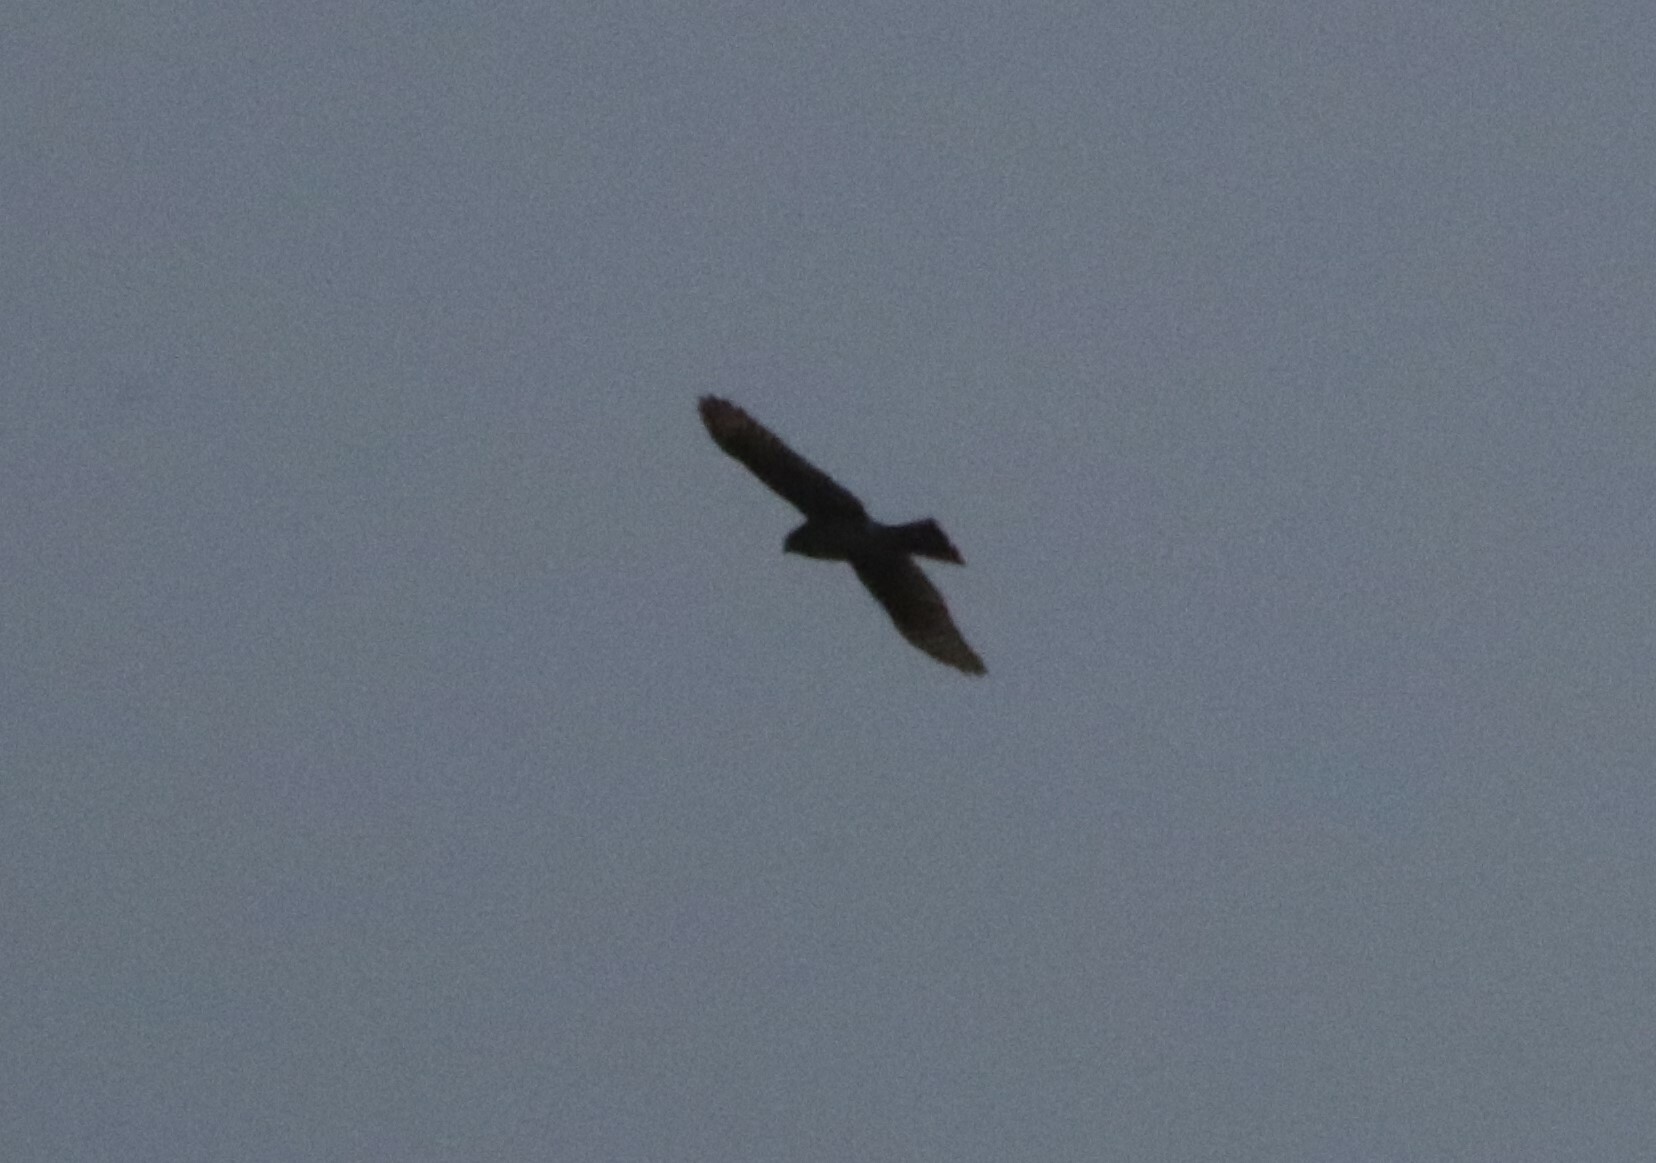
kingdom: Animalia
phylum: Chordata
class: Aves
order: Accipitriformes
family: Accipitridae
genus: Accipiter
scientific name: Accipiter striatus
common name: Sharp-shinned hawk
